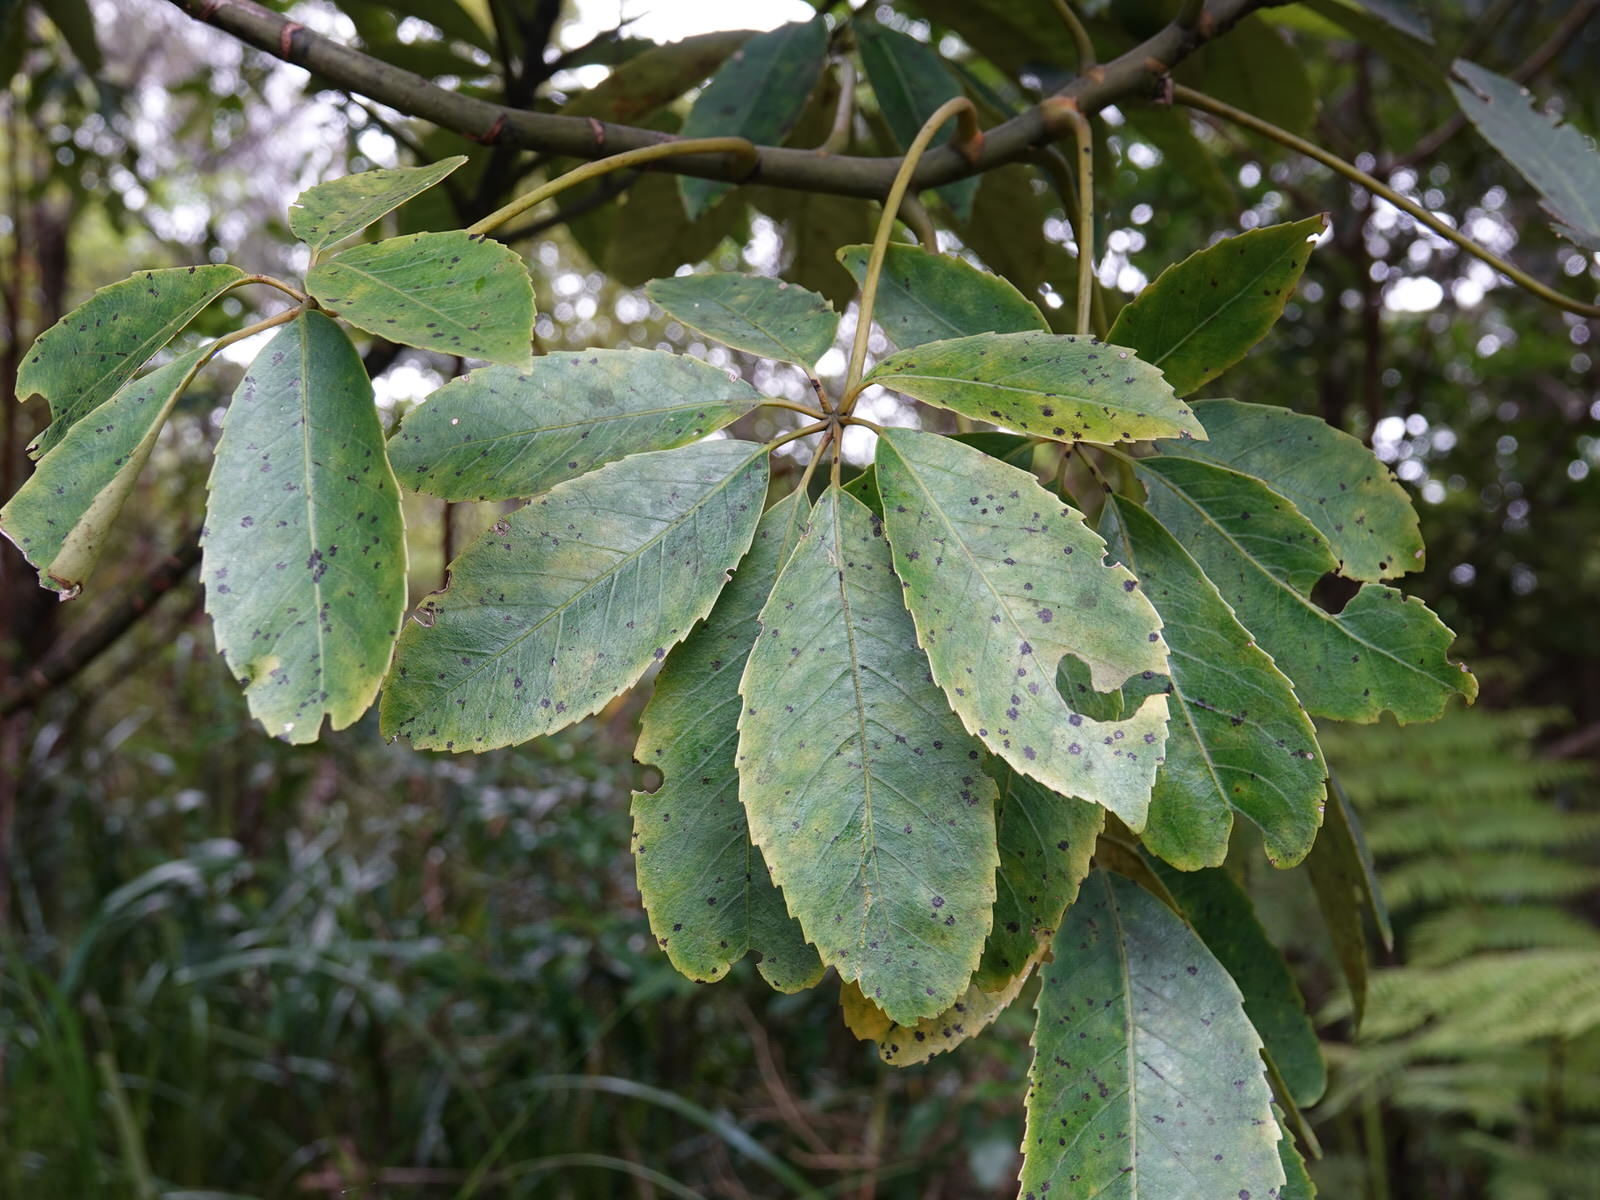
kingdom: Fungi
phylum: Ascomycota
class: Dothideomycetes
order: Asterinales
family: Asterinaceae
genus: Placosoma
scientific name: Placosoma nothopanacis
